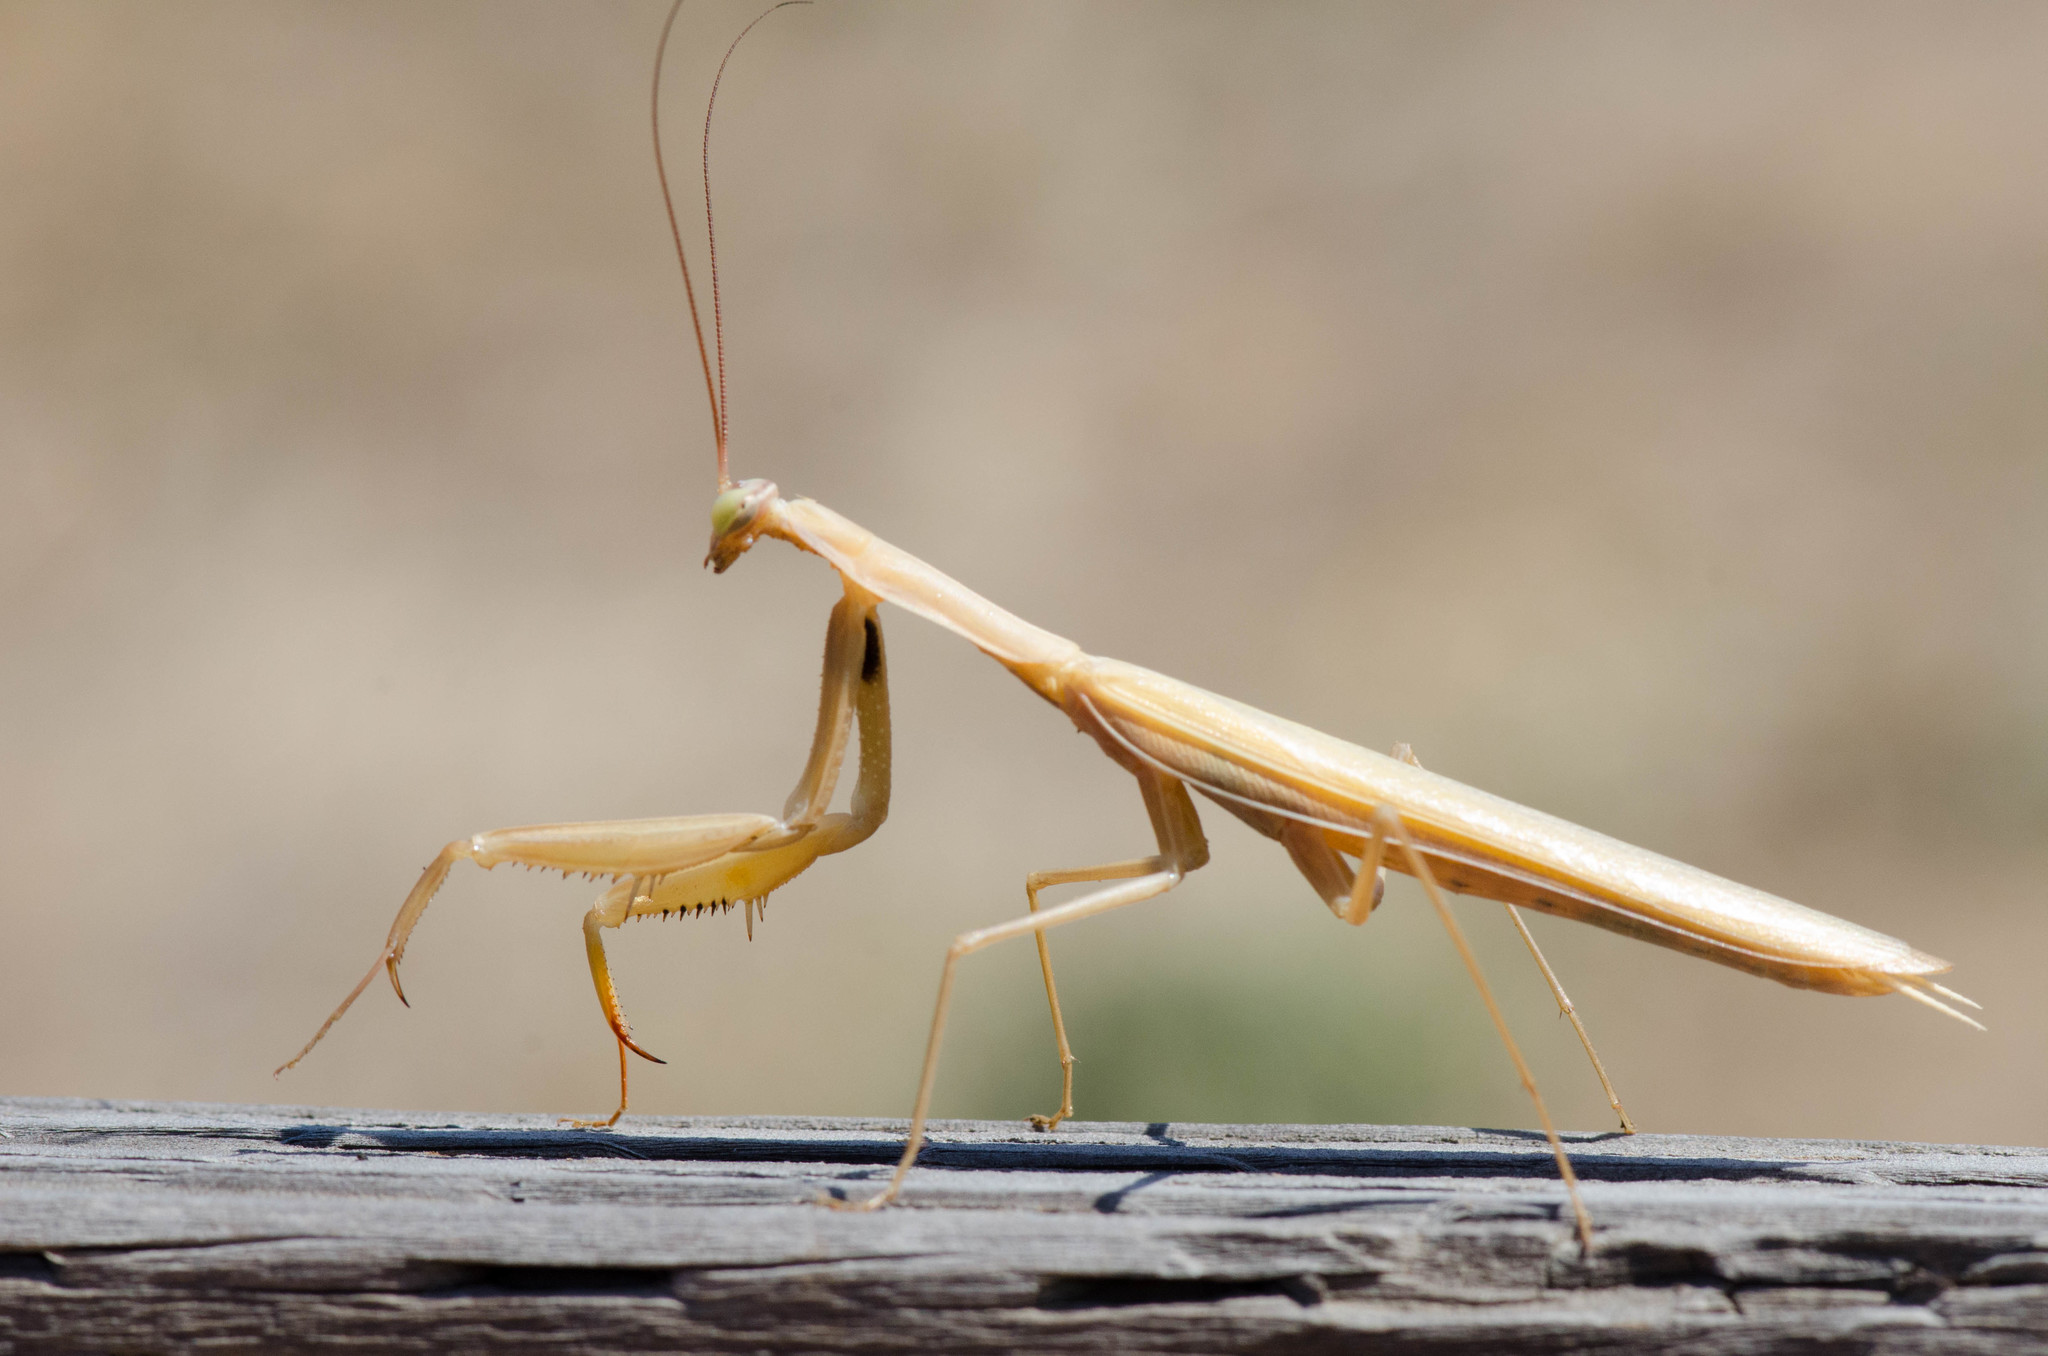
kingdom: Animalia
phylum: Arthropoda
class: Insecta
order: Mantodea
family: Mantidae
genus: Mantis
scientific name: Mantis religiosa
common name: Praying mantis
